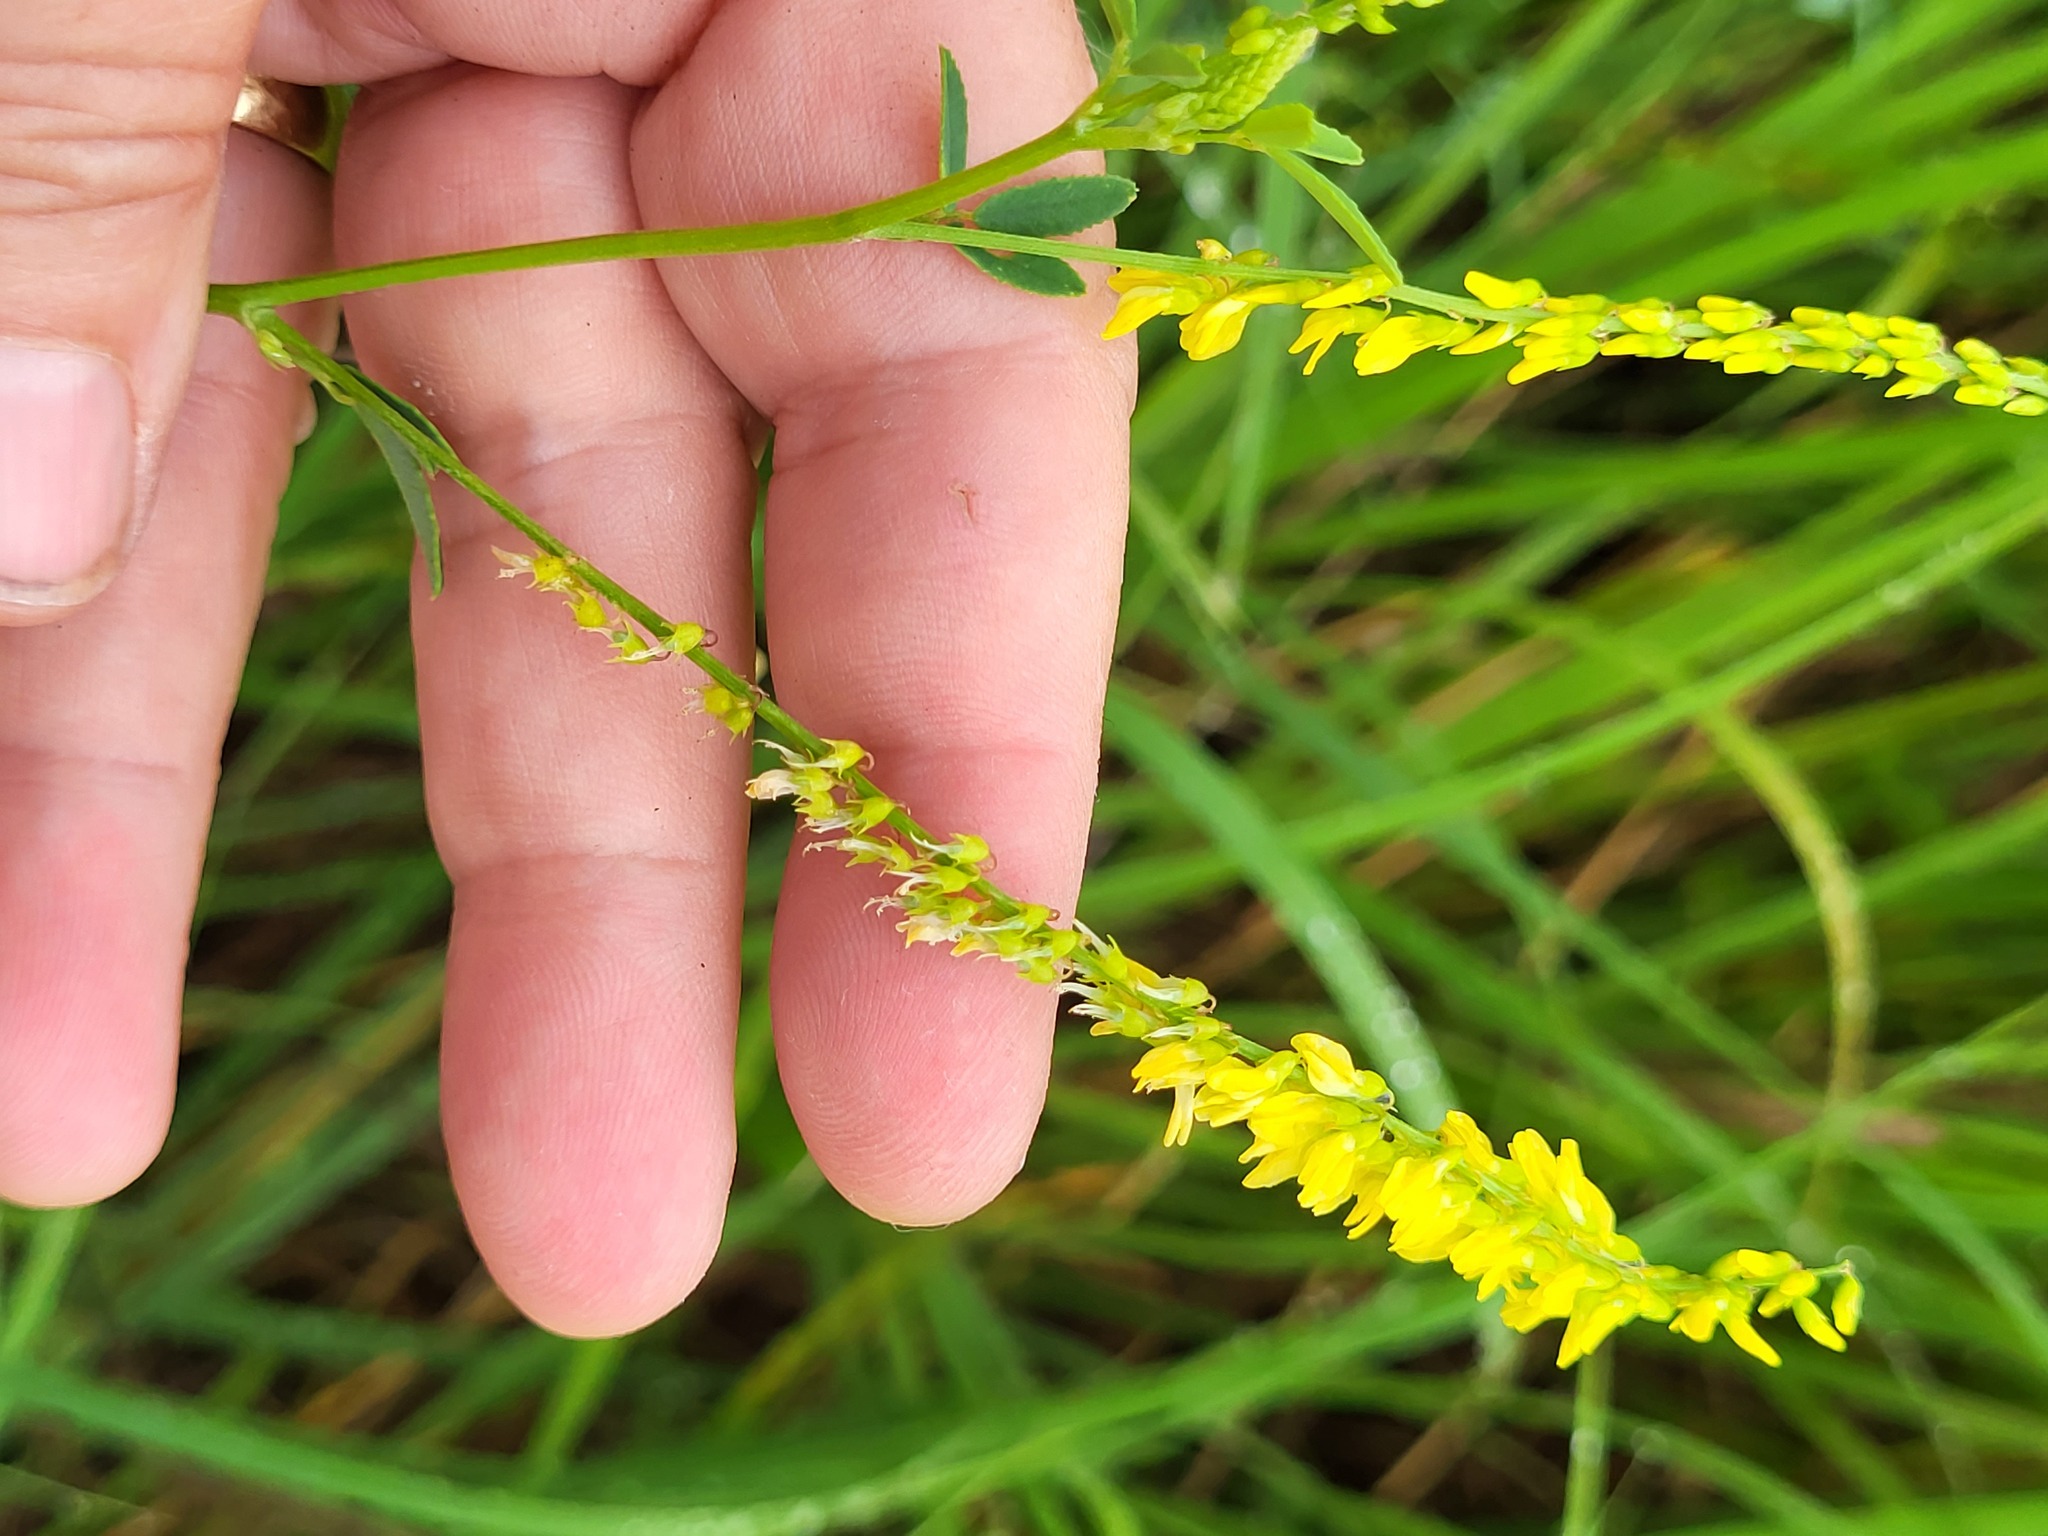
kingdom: Plantae
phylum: Tracheophyta
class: Magnoliopsida
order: Fabales
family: Fabaceae
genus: Melilotus
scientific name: Melilotus officinalis
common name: Sweetclover
